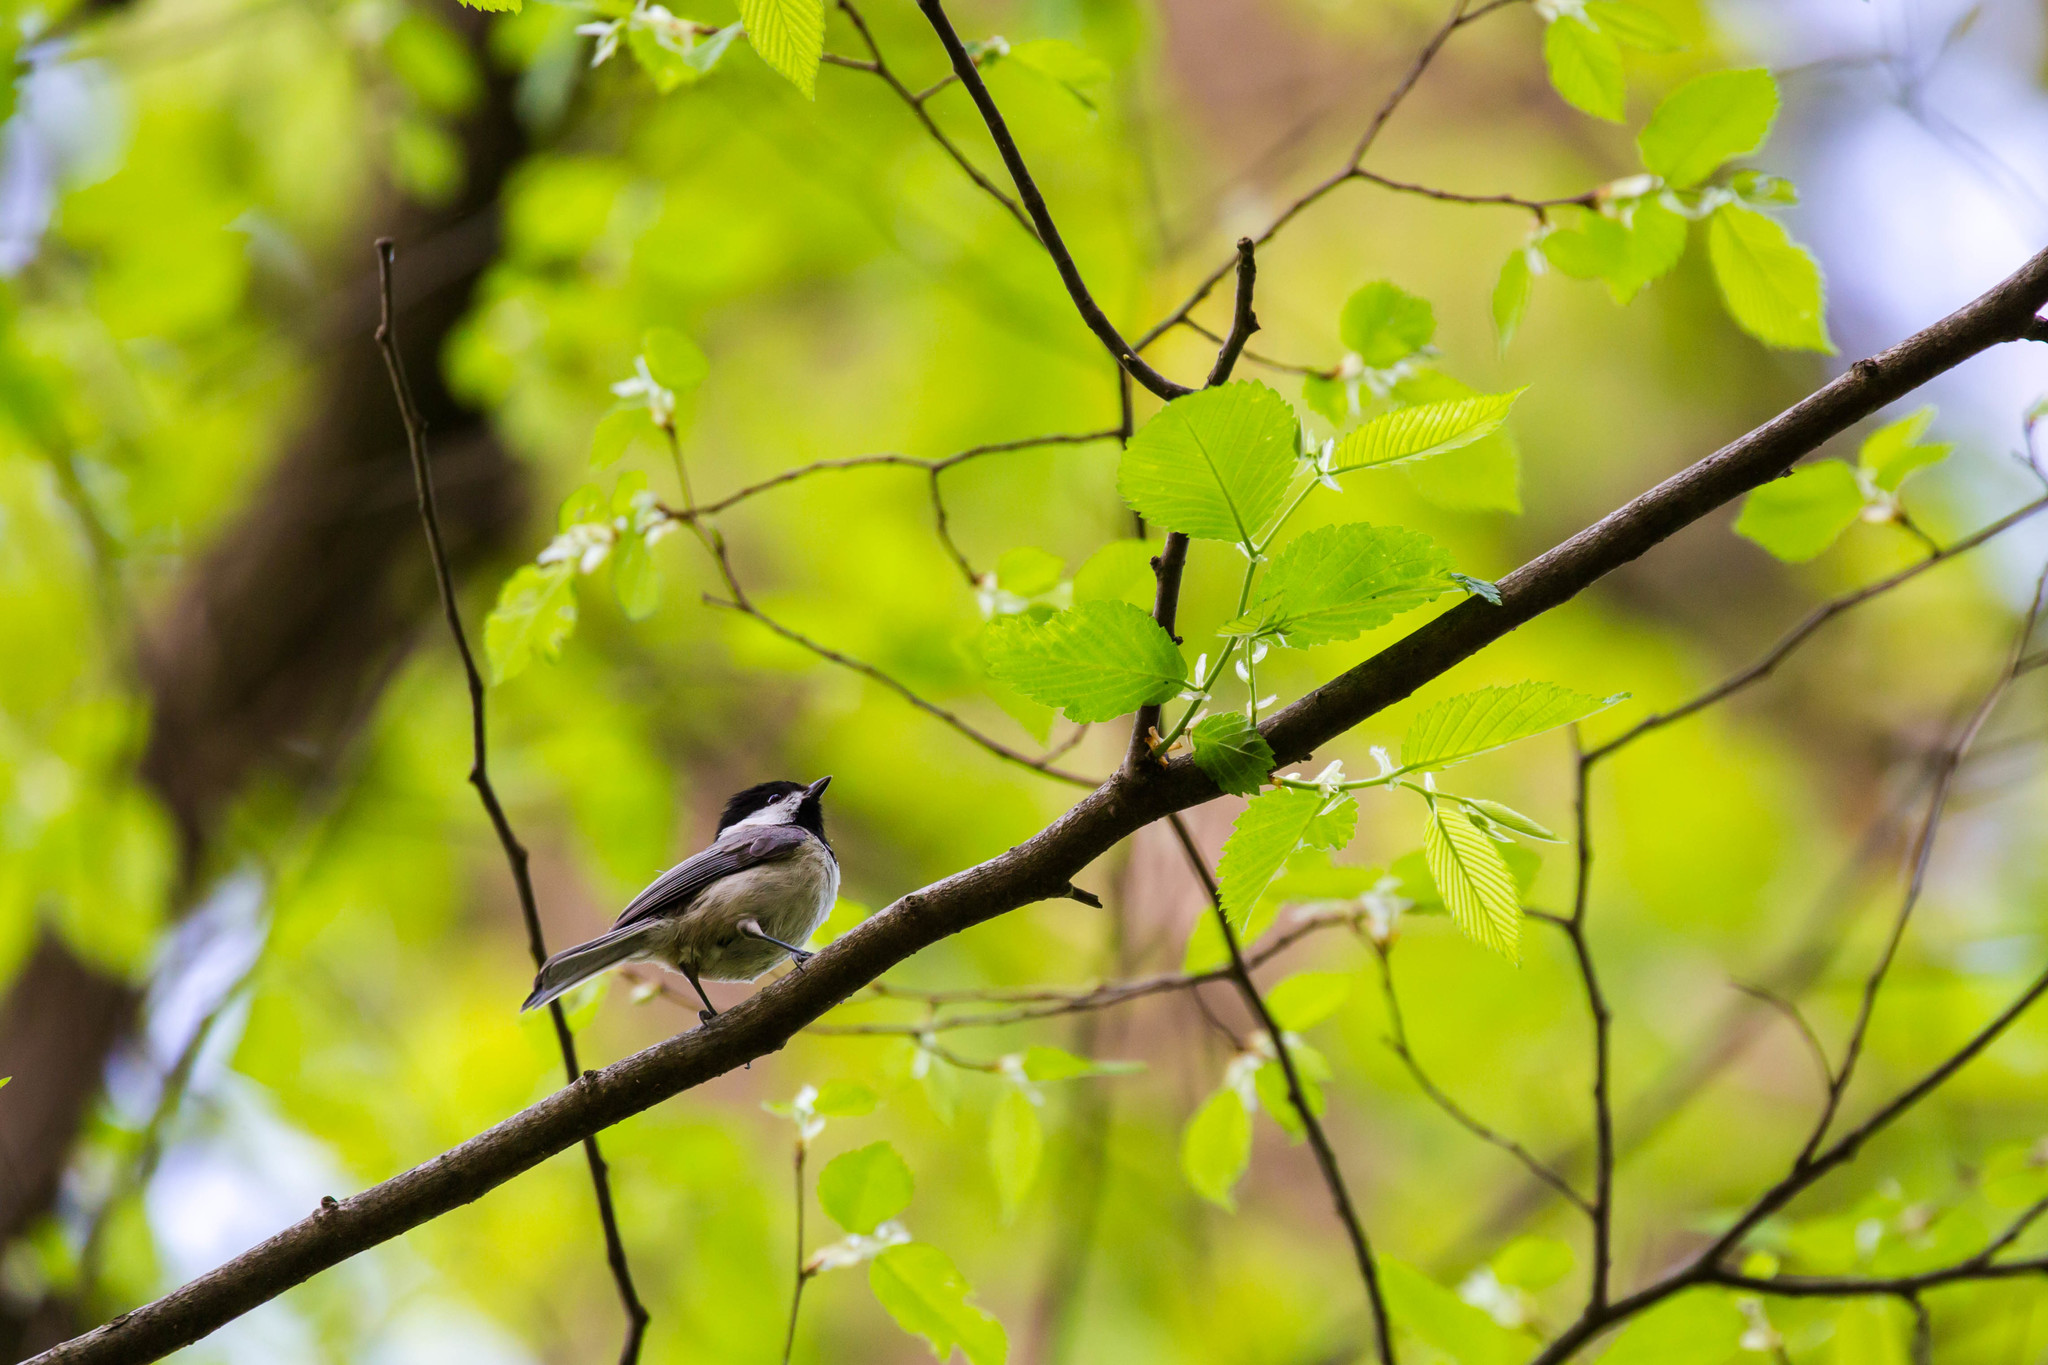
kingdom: Animalia
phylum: Chordata
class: Aves
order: Passeriformes
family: Paridae
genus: Poecile
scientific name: Poecile carolinensis
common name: Carolina chickadee
